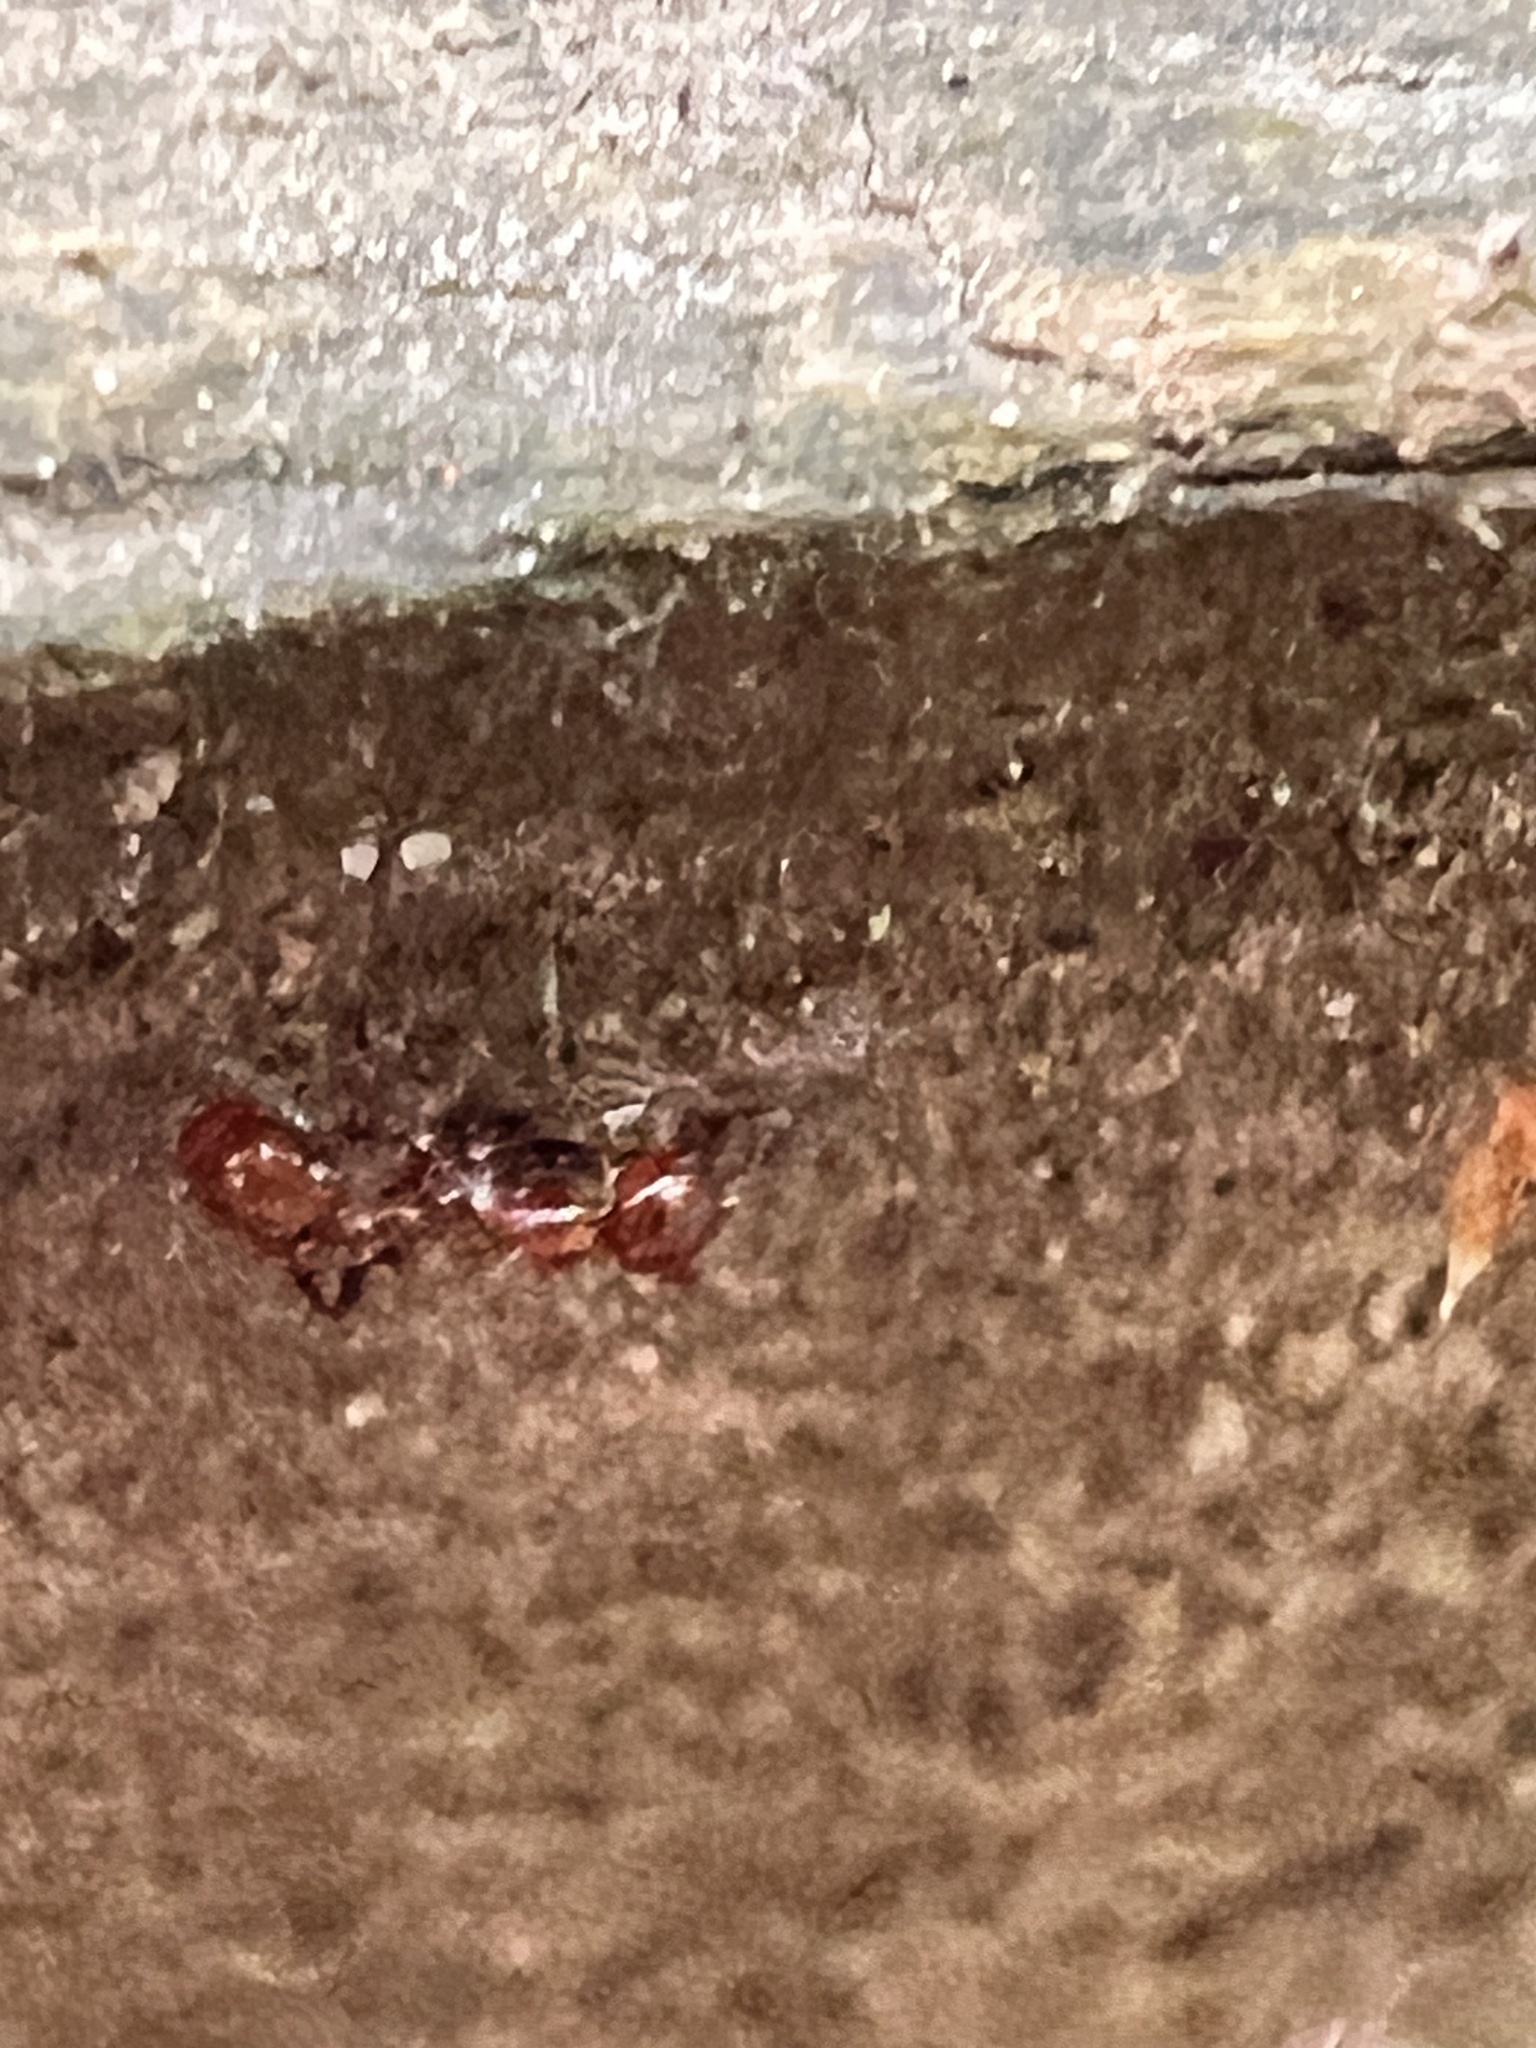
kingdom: Animalia
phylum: Arthropoda
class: Insecta
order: Hymenoptera
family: Formicidae
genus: Monomorium
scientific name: Monomorium antarcticum
